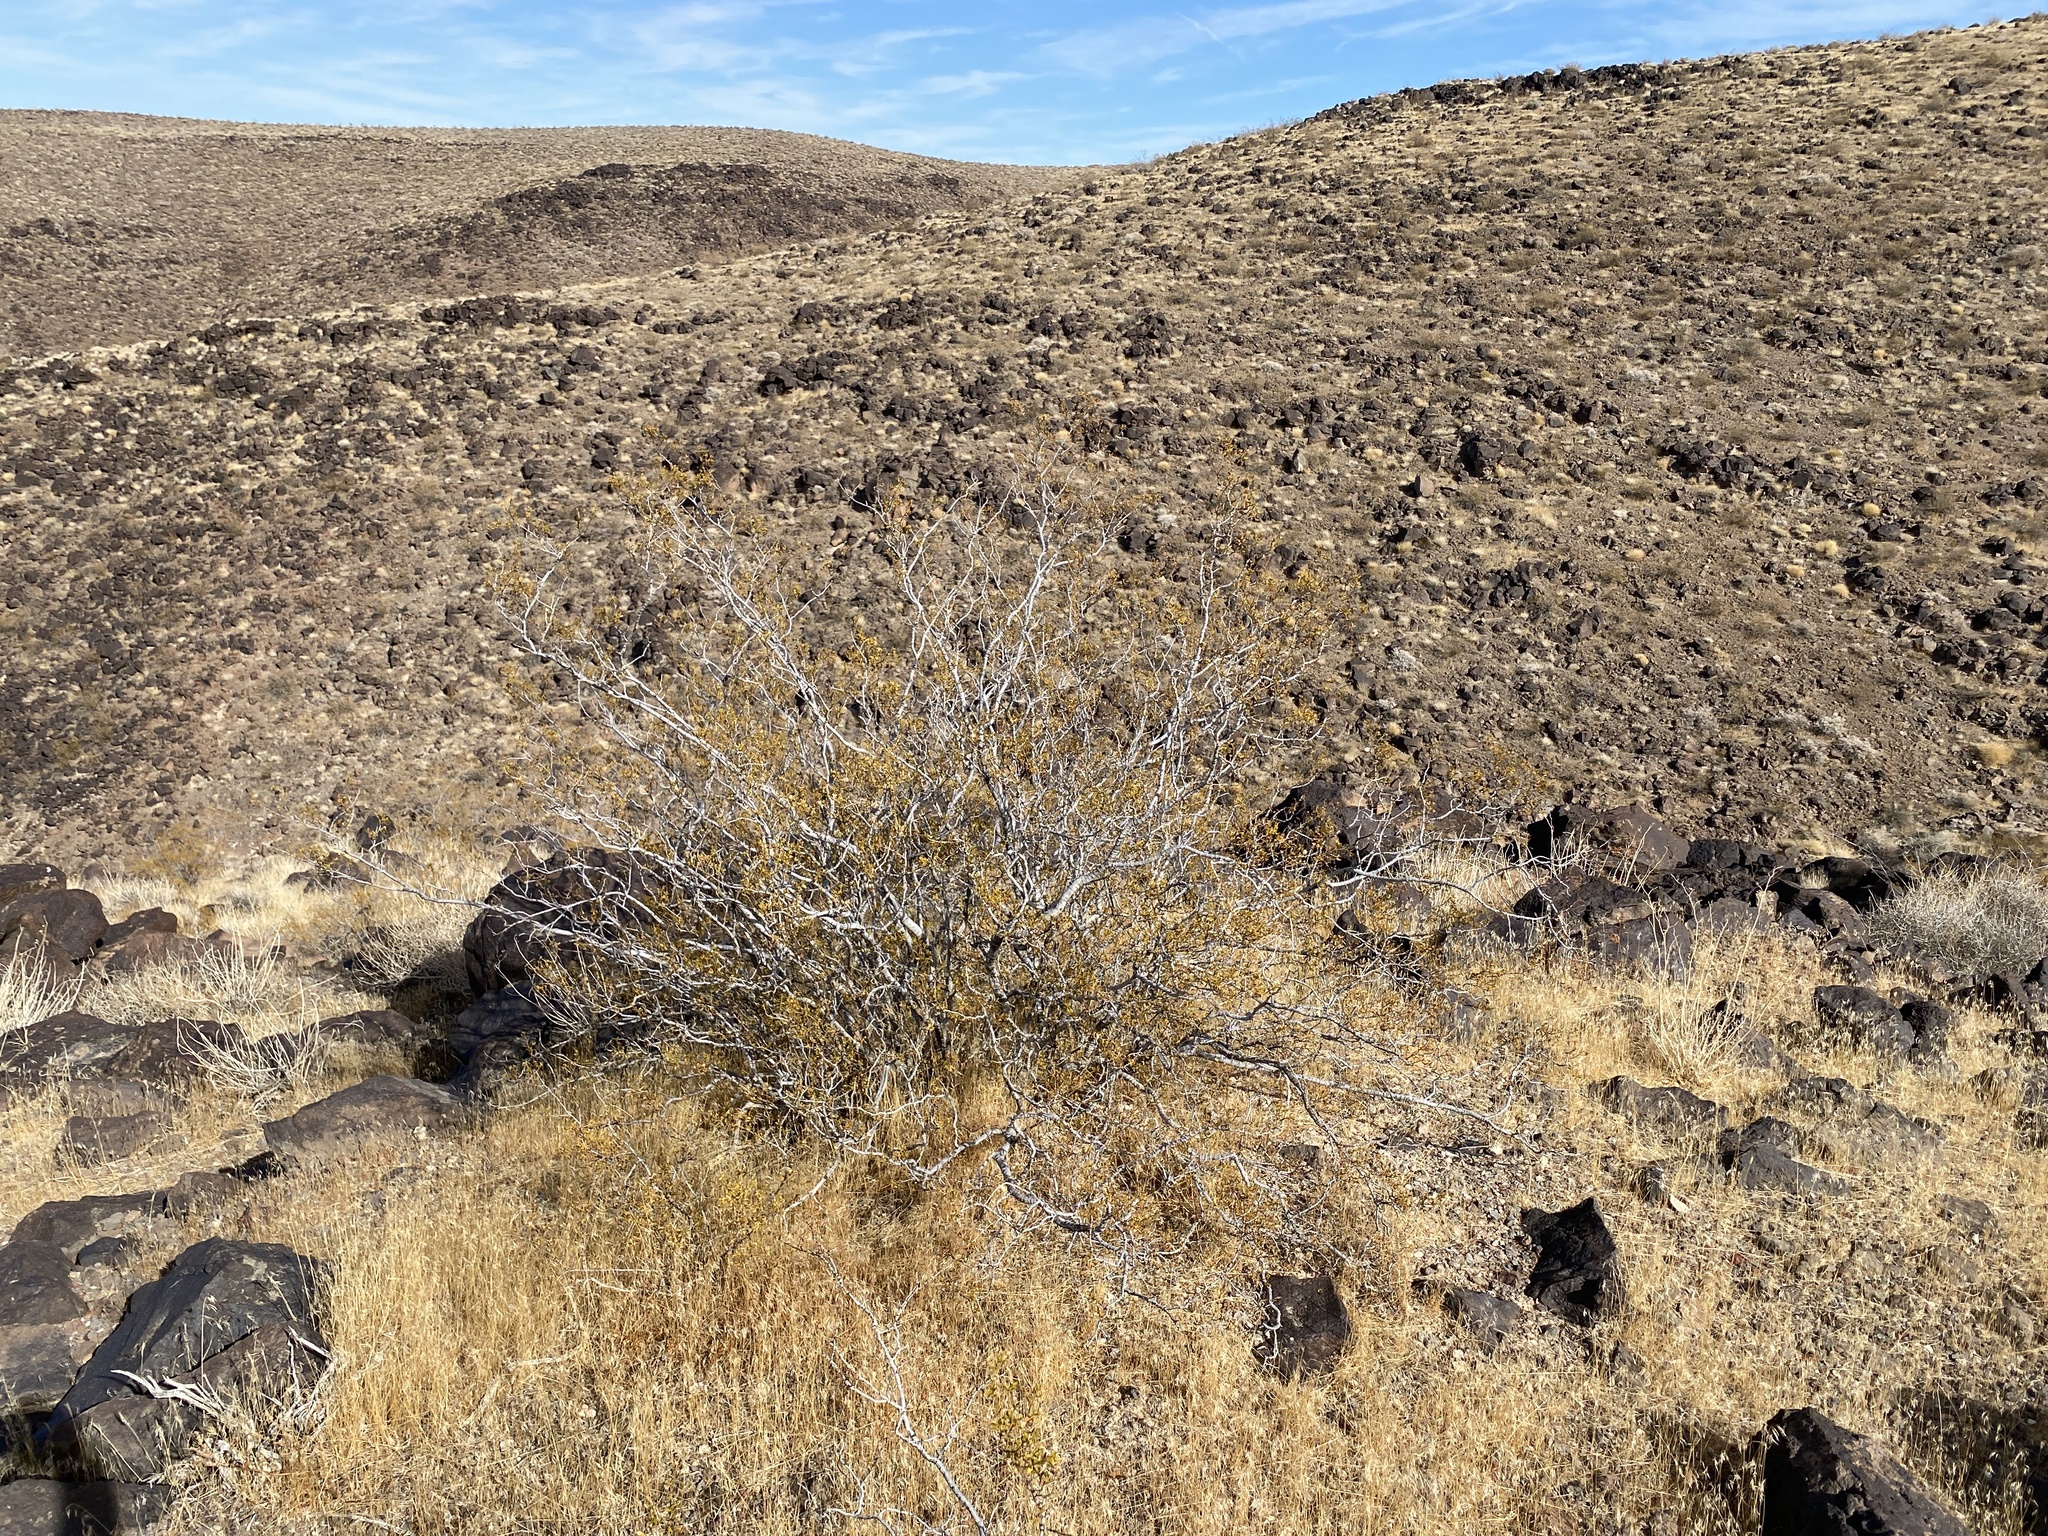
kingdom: Plantae
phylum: Tracheophyta
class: Magnoliopsida
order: Zygophyllales
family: Zygophyllaceae
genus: Larrea
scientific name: Larrea tridentata
